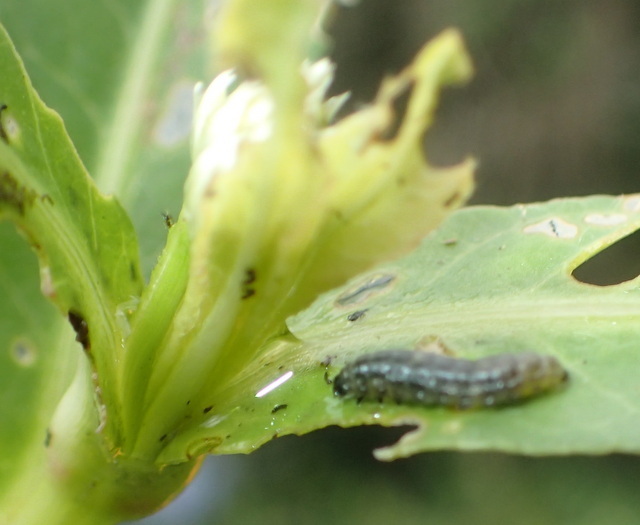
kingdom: Animalia
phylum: Arthropoda
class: Insecta
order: Coleoptera
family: Chrysomelidae
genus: Agasicles
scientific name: Agasicles hygrophila
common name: Alligatorweed flea beetle
